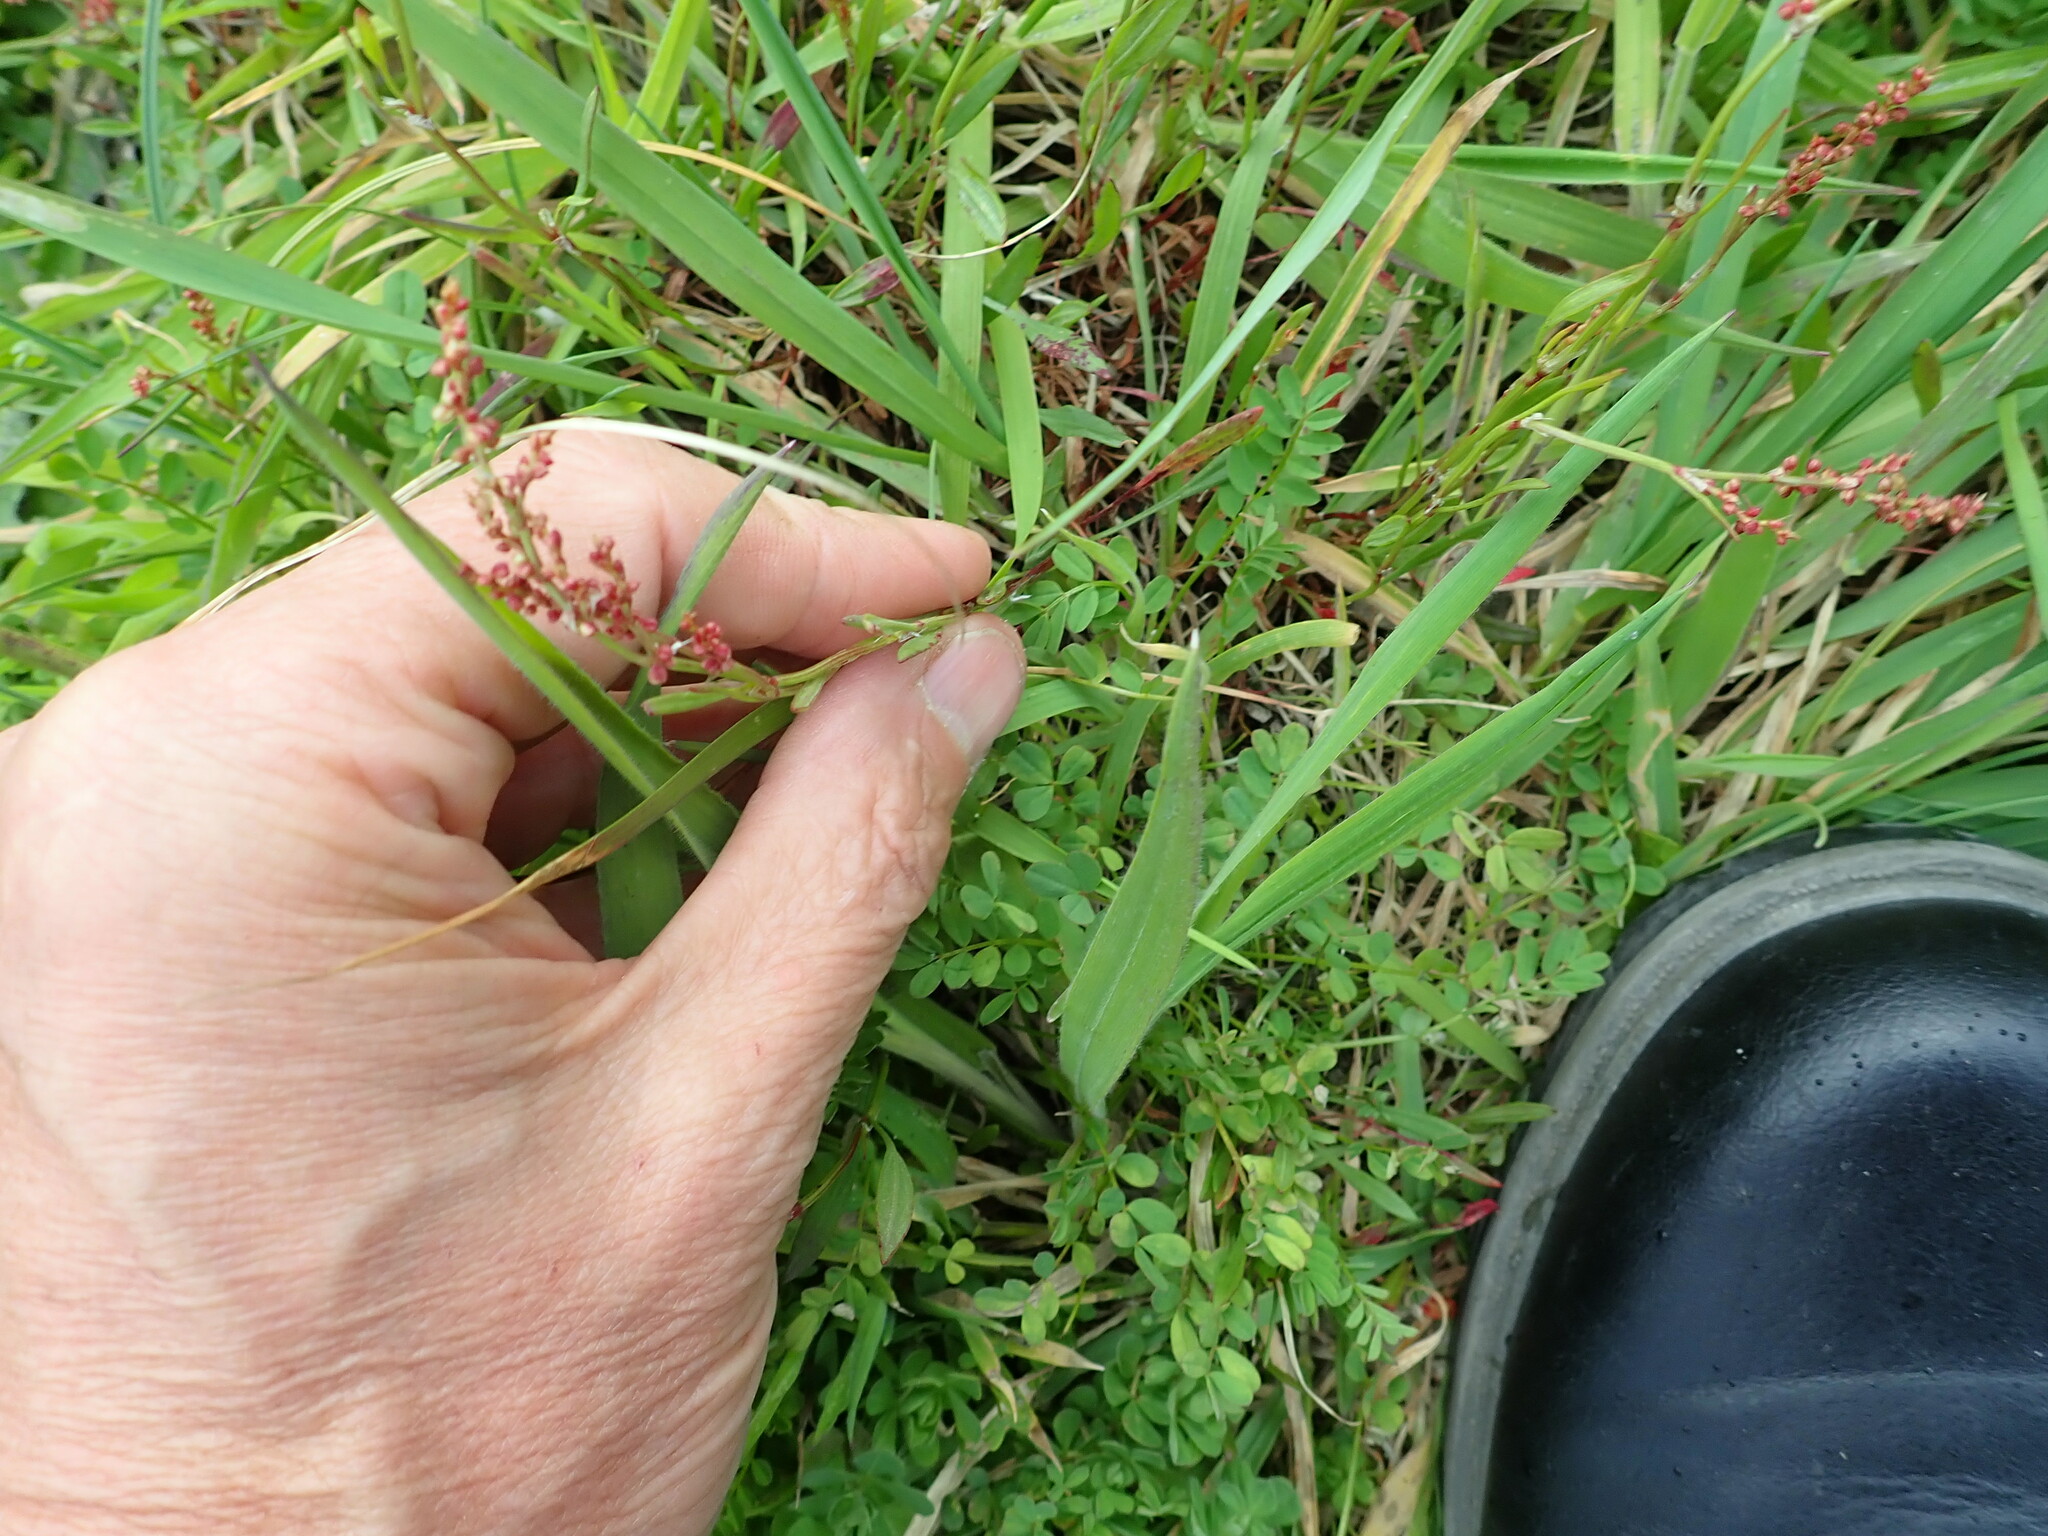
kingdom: Plantae
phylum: Tracheophyta
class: Magnoliopsida
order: Caryophyllales
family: Polygonaceae
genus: Rumex
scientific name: Rumex acetosella
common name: Common sheep sorrel
